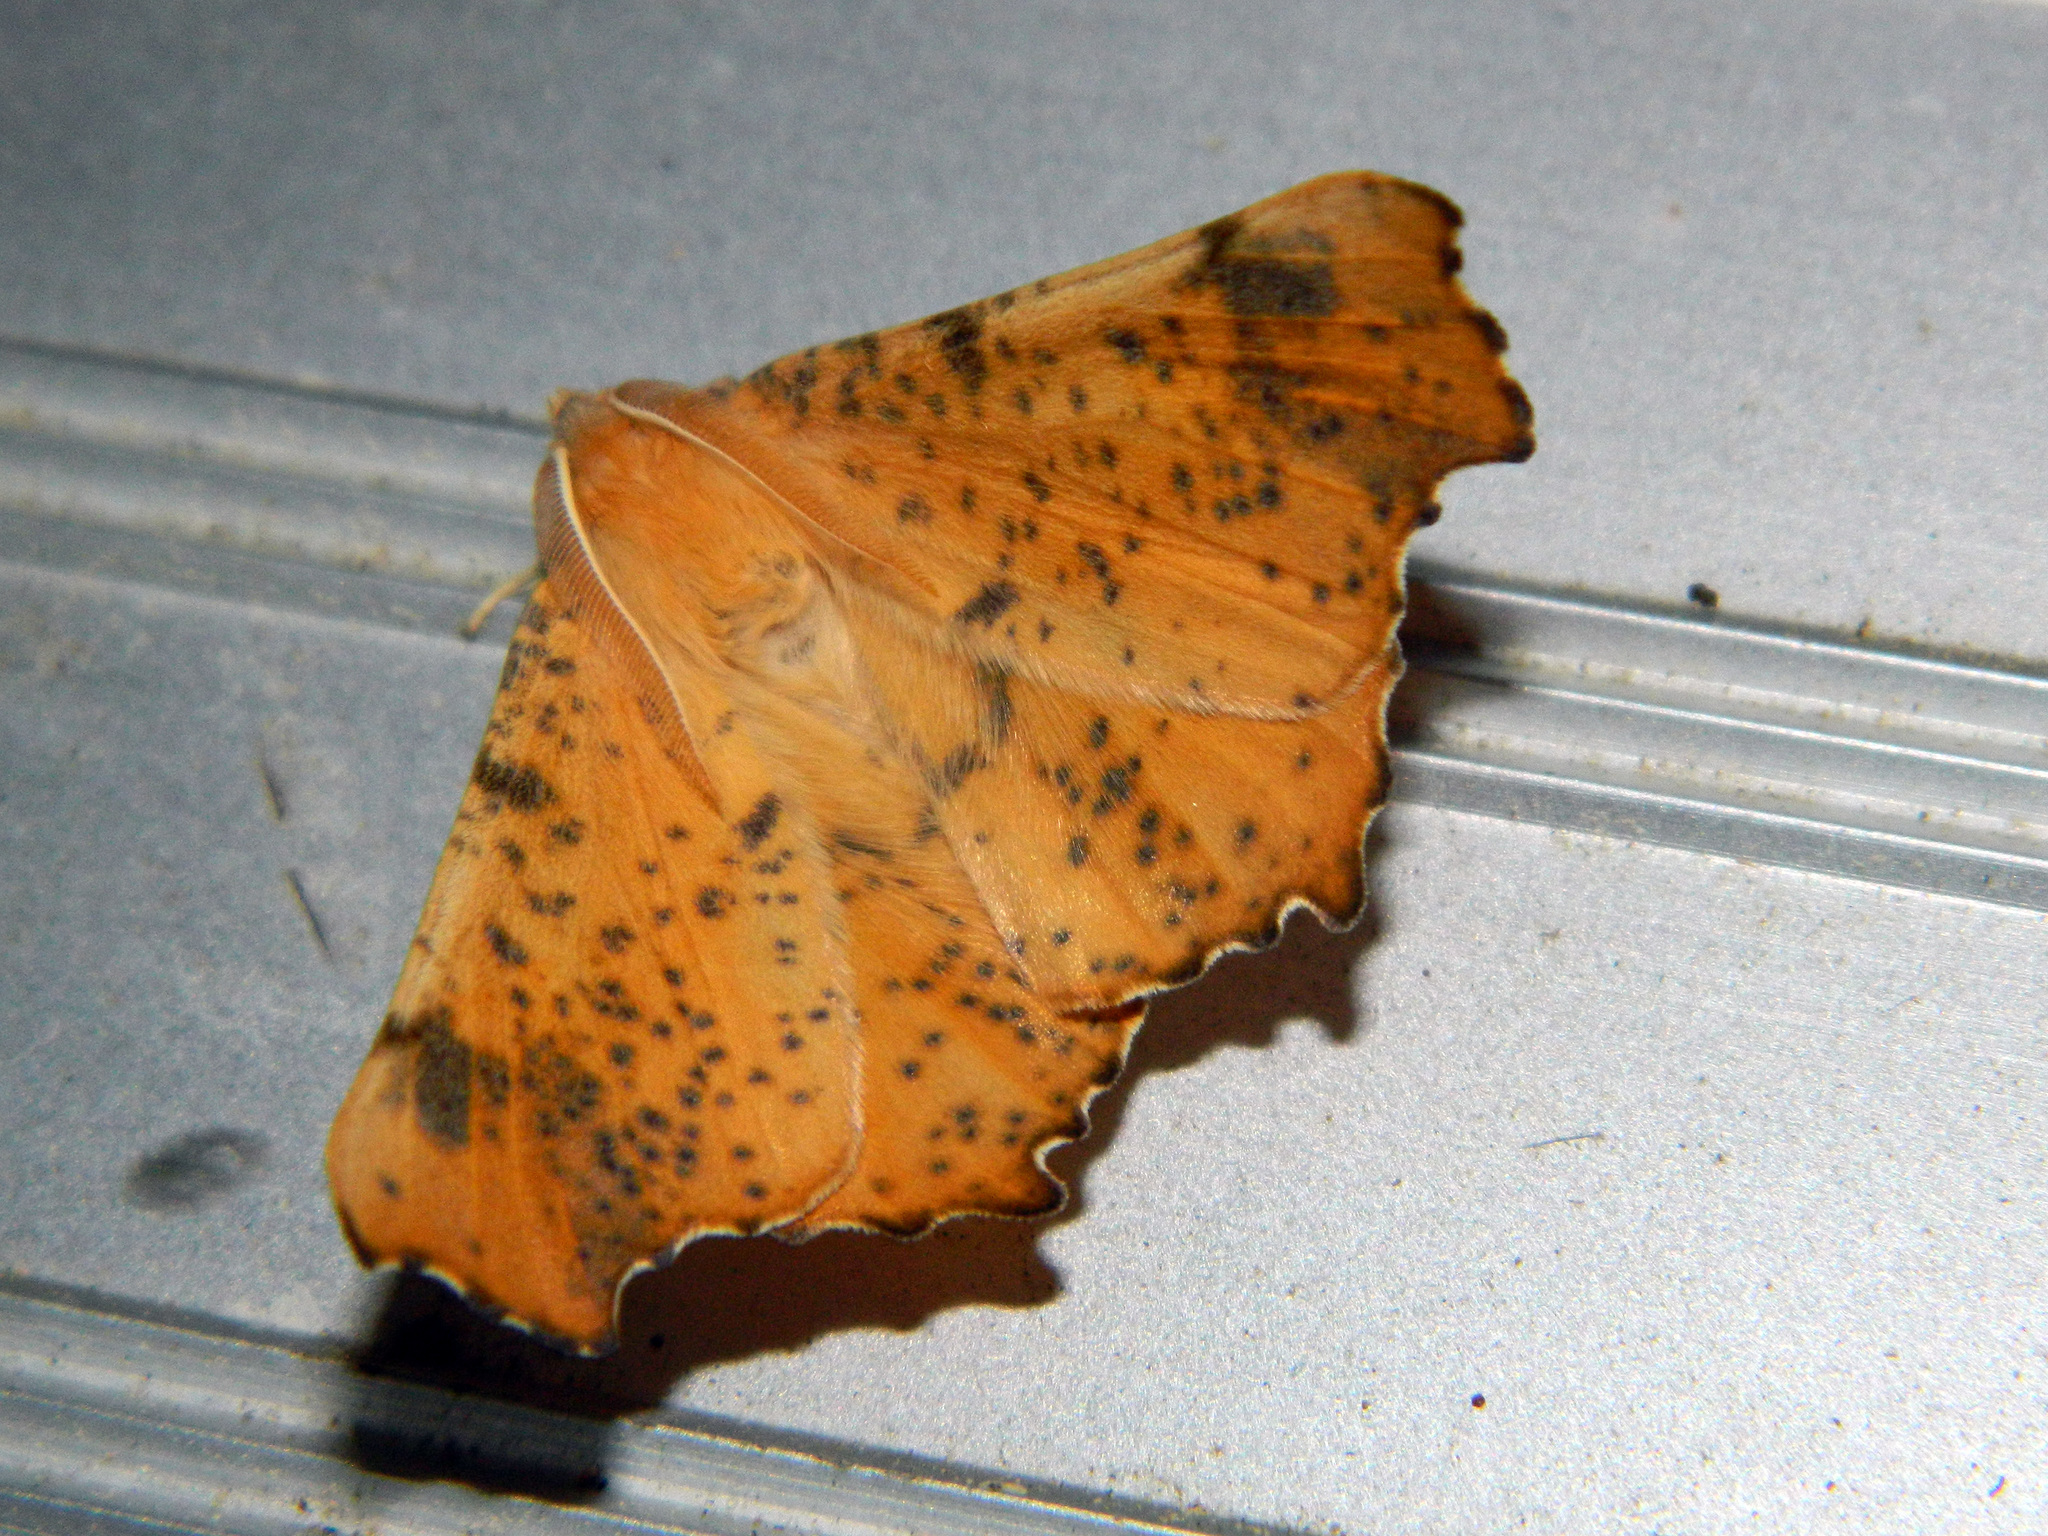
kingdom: Animalia
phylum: Arthropoda
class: Insecta
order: Lepidoptera
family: Geometridae
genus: Ennomos
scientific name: Ennomos magnaria
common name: Maple spanworm
